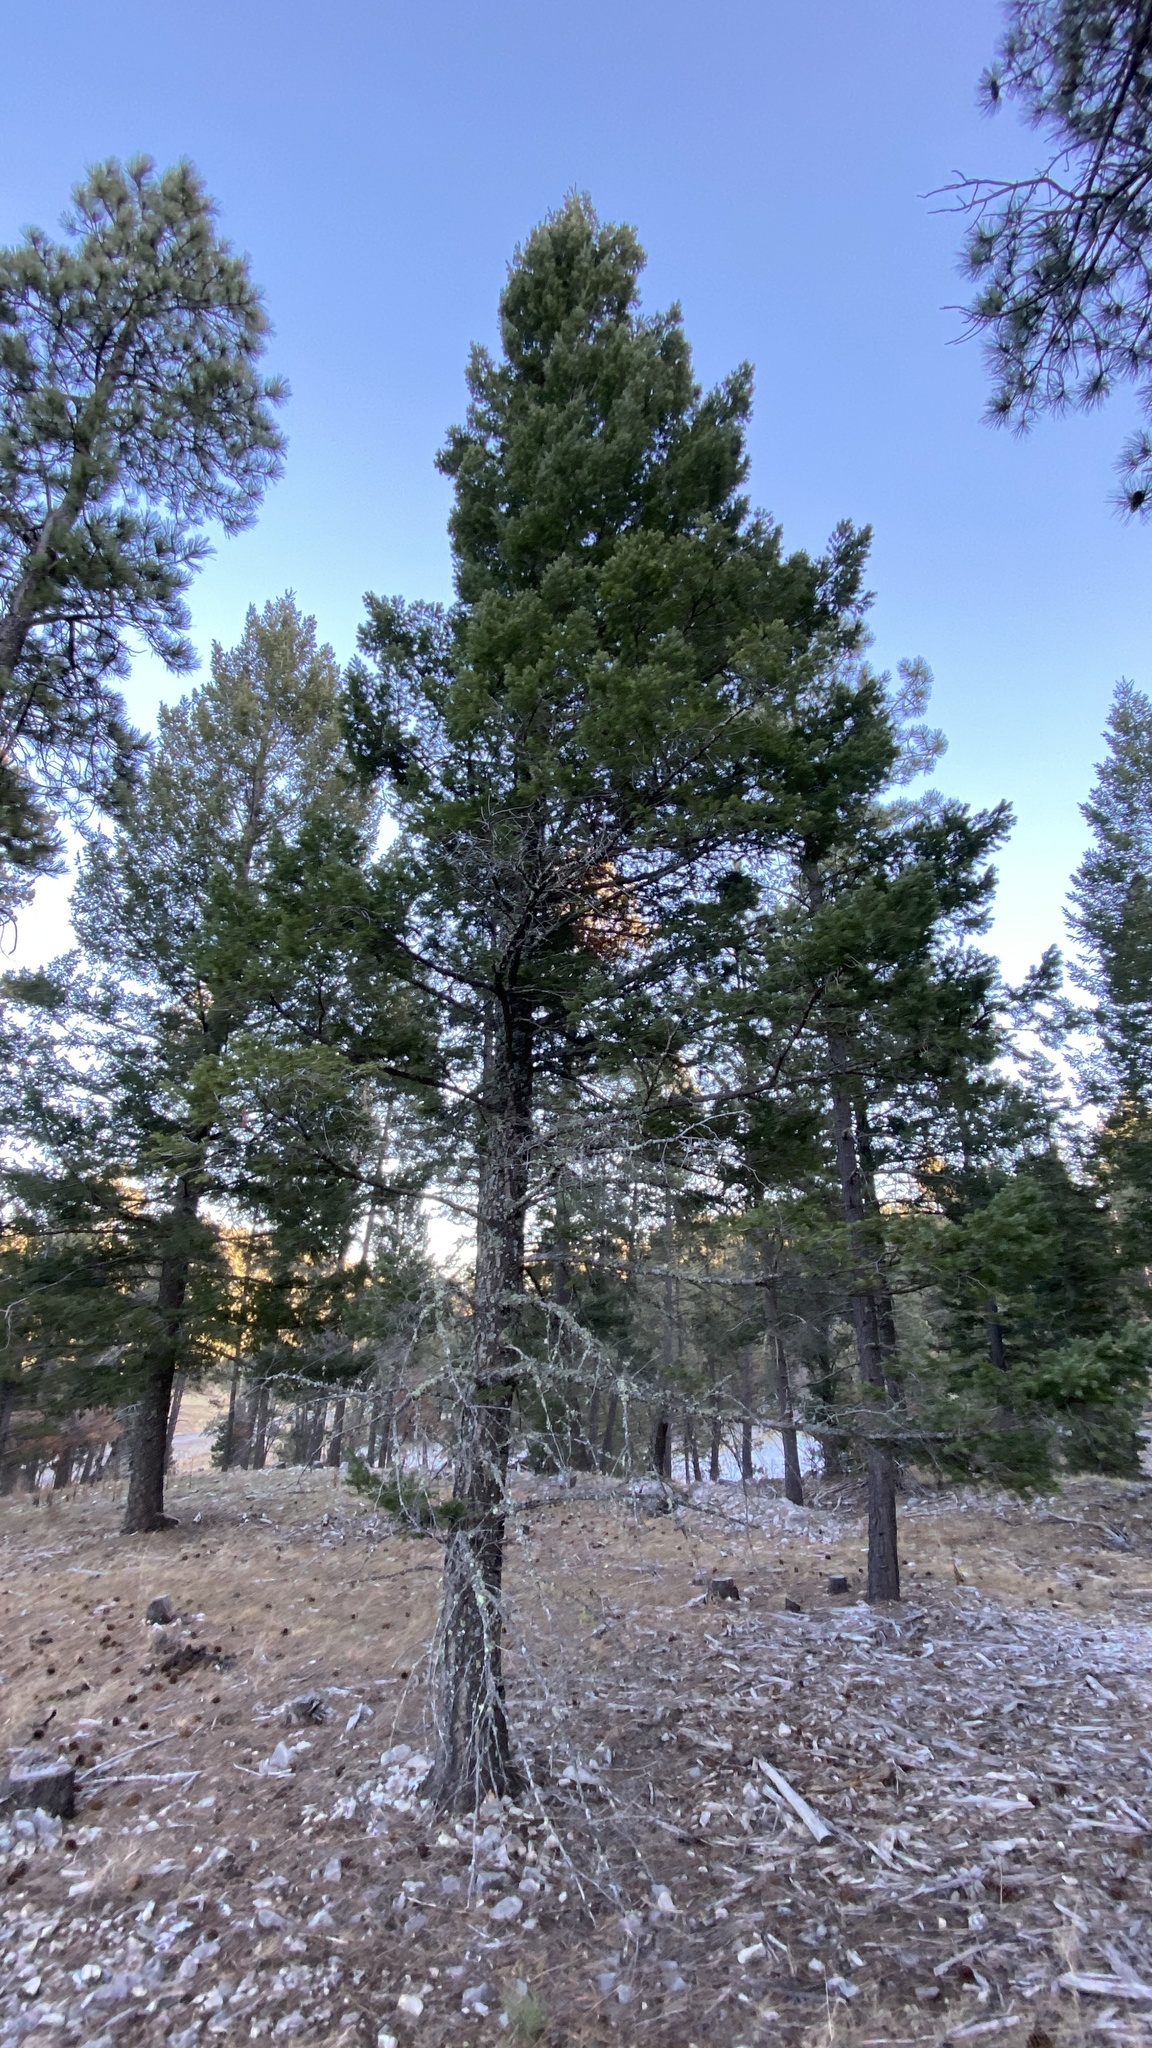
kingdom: Plantae
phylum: Tracheophyta
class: Pinopsida
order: Pinales
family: Pinaceae
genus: Pseudotsuga
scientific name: Pseudotsuga menziesii
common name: Douglas fir
